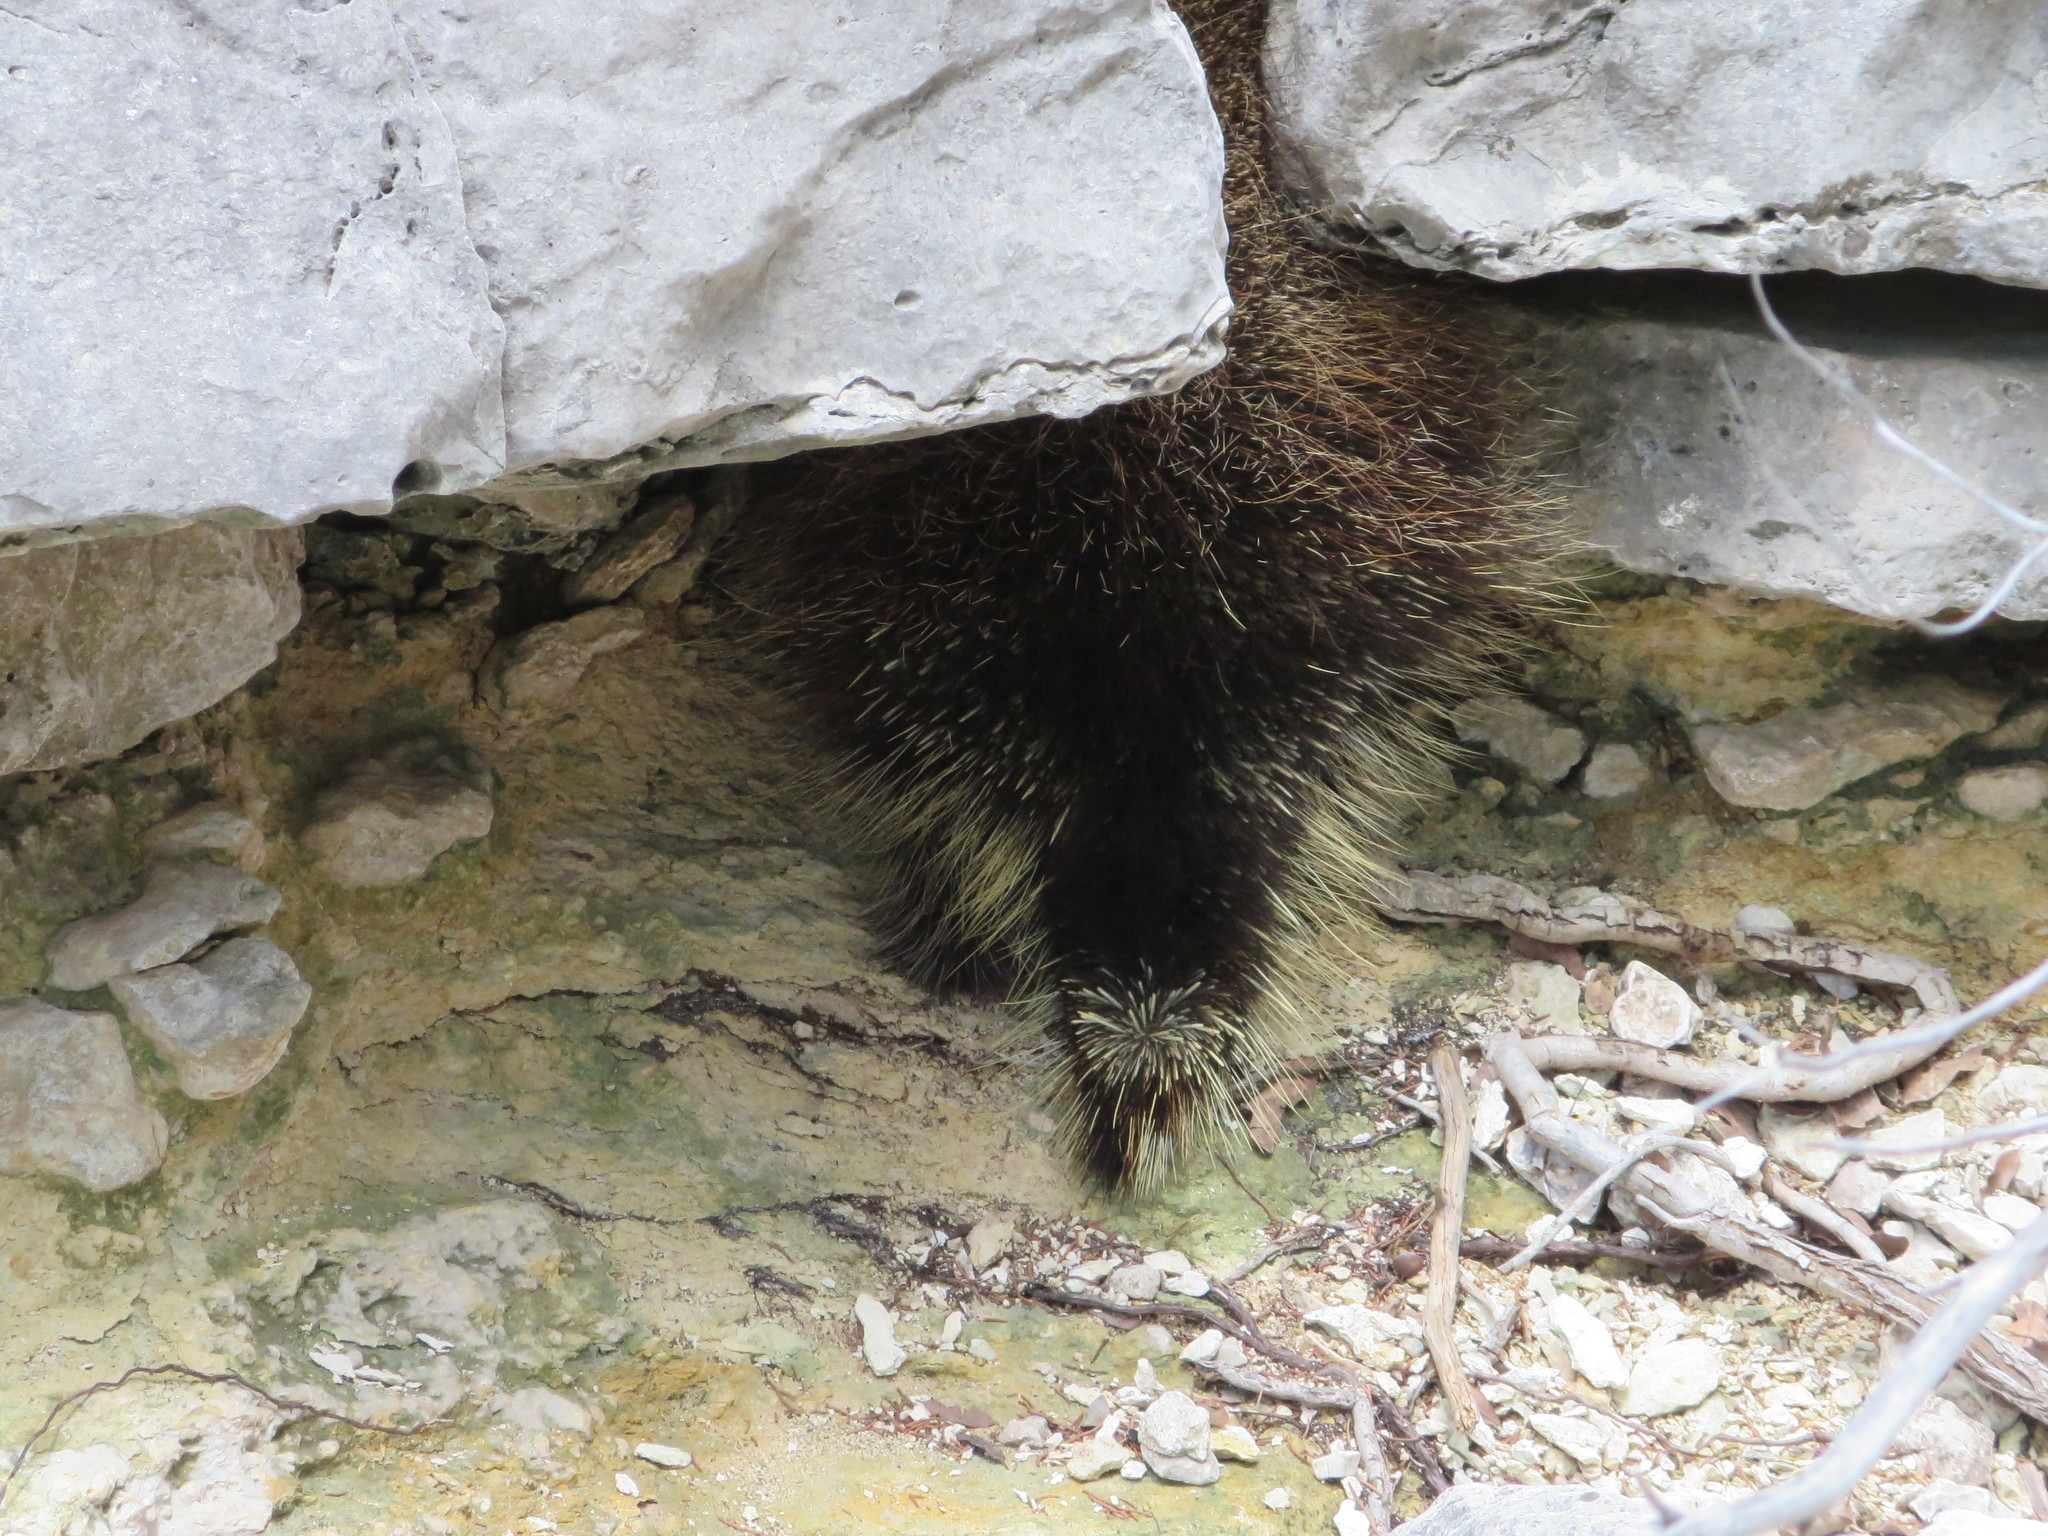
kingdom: Animalia
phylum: Chordata
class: Mammalia
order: Rodentia
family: Erethizontidae
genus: Erethizon
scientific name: Erethizon dorsatus
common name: North american porcupine
